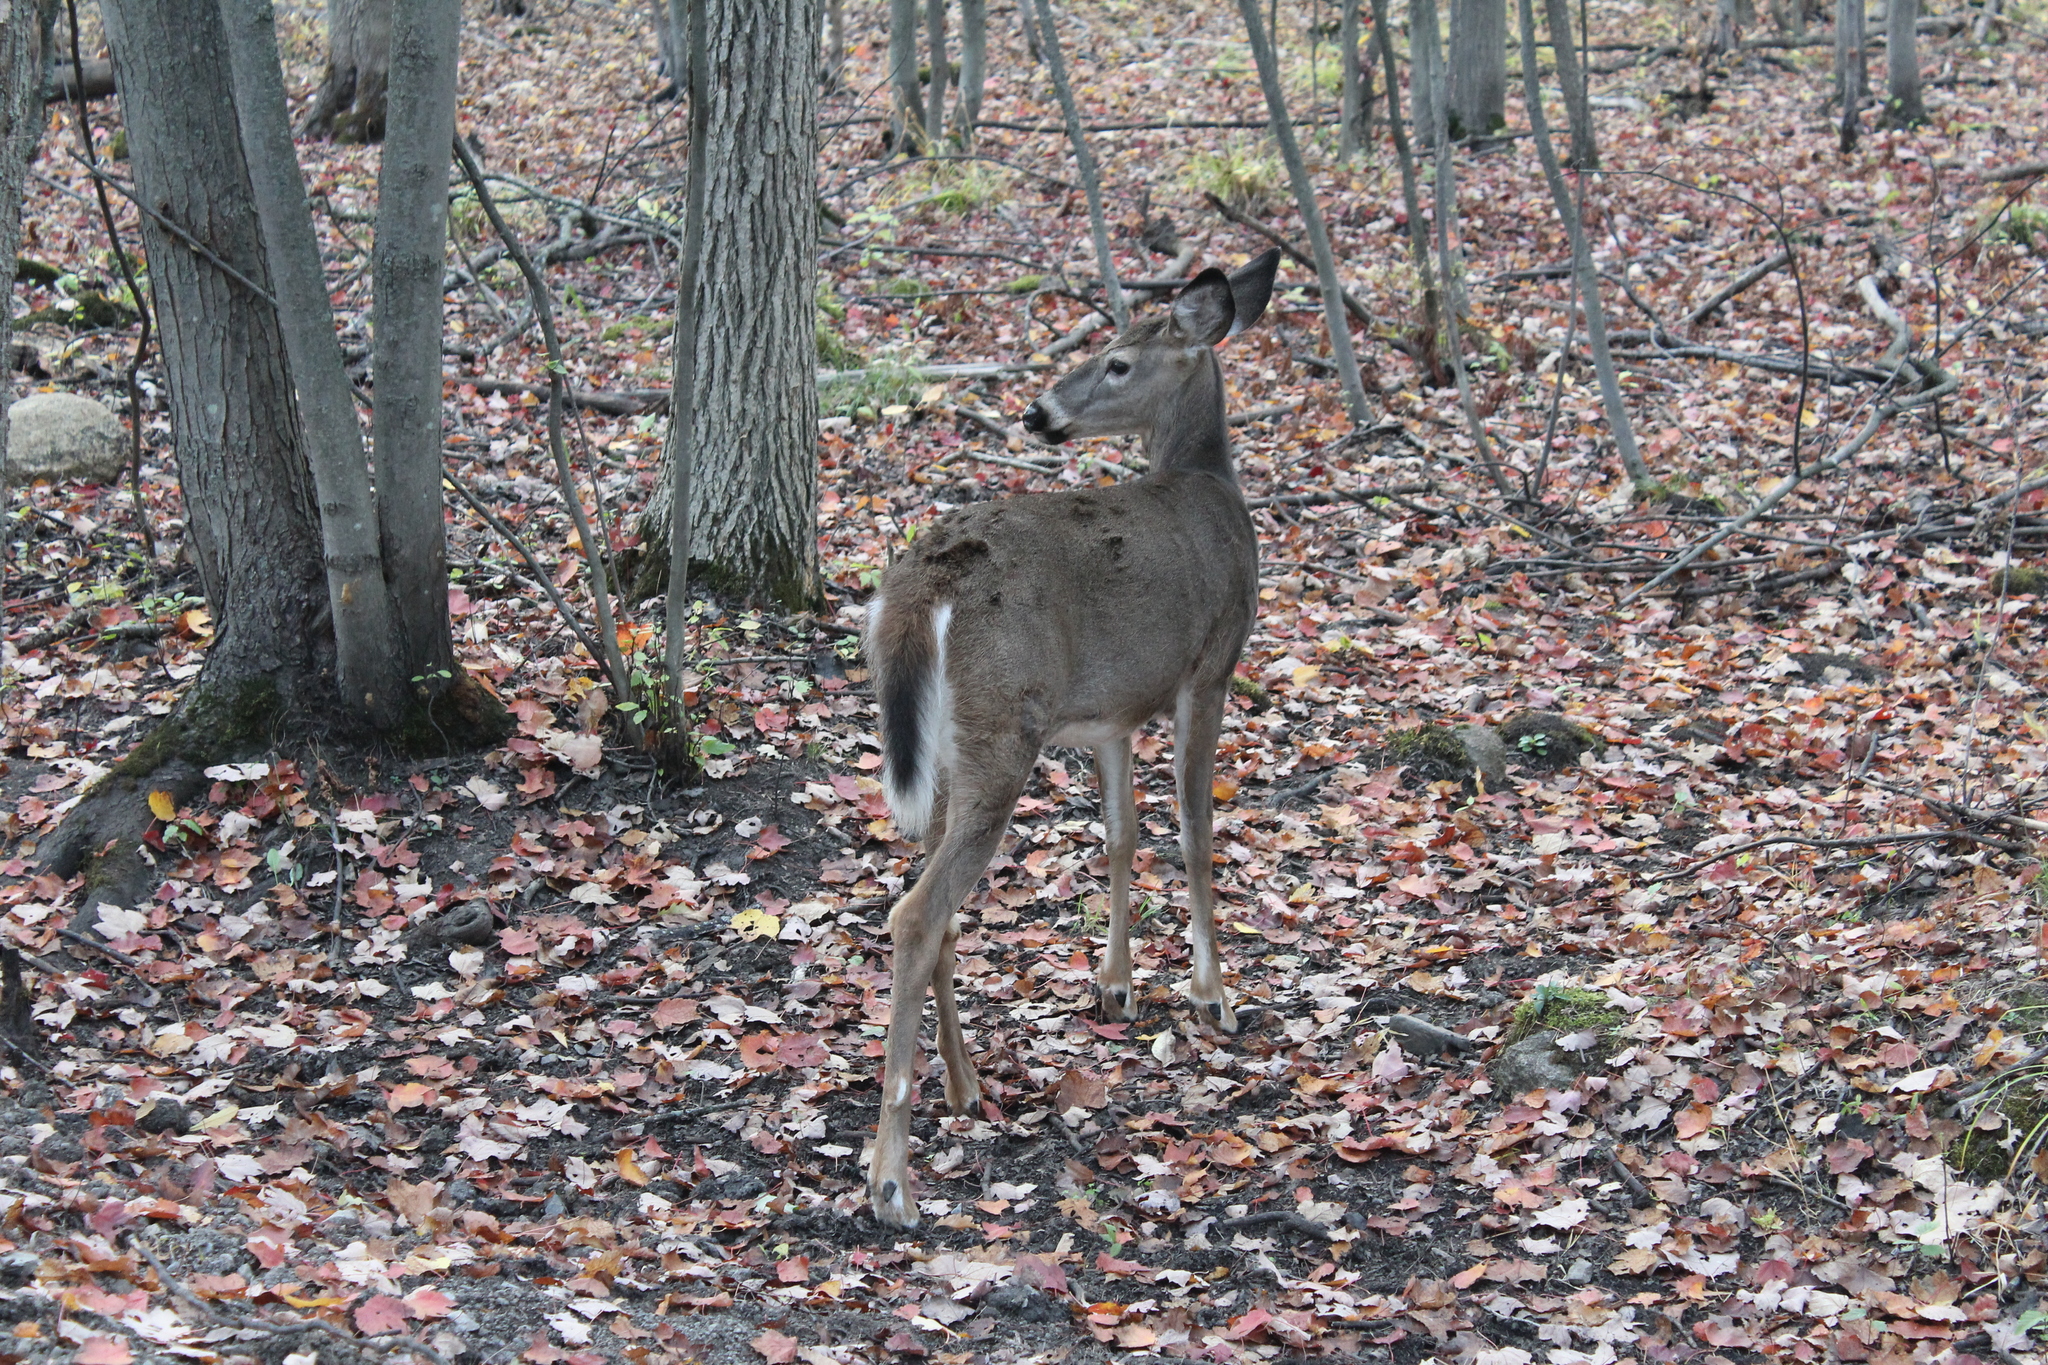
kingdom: Animalia
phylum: Chordata
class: Mammalia
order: Artiodactyla
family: Cervidae
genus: Odocoileus
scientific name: Odocoileus virginianus
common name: White-tailed deer
